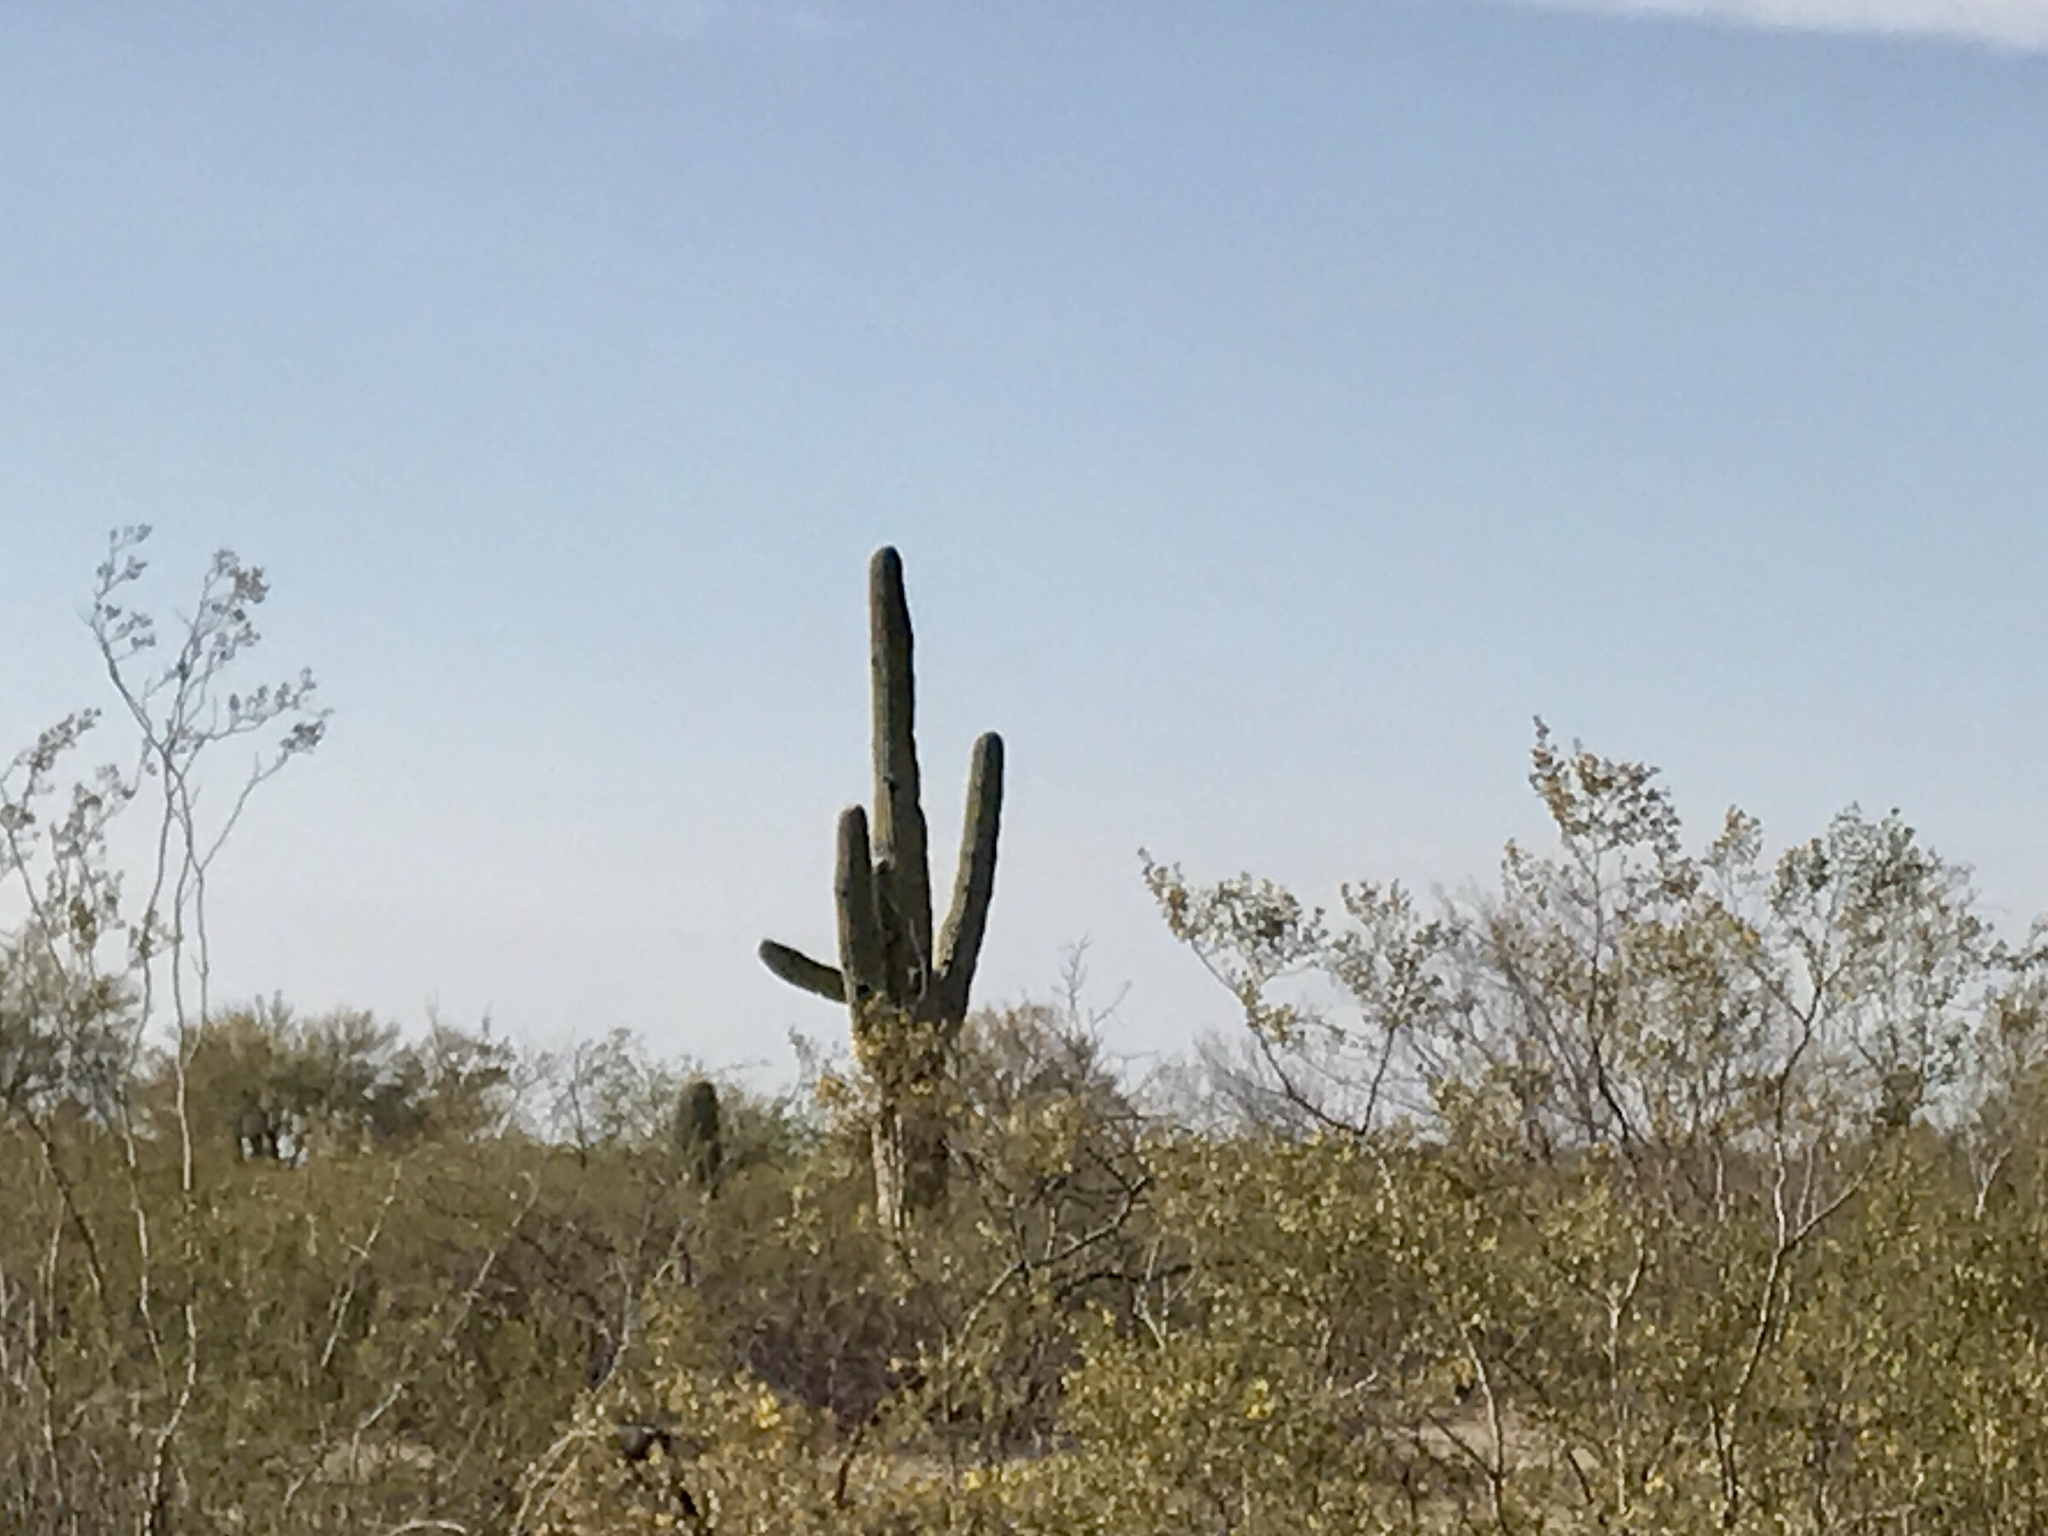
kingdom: Plantae
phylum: Tracheophyta
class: Magnoliopsida
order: Caryophyllales
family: Cactaceae
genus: Carnegiea
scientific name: Carnegiea gigantea
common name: Saguaro
